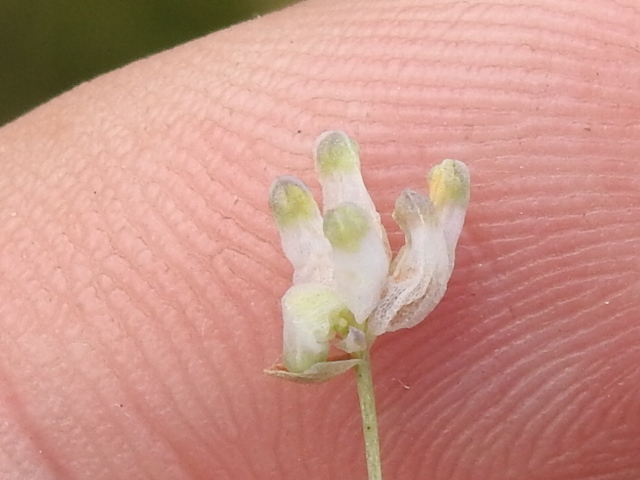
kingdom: Plantae
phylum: Tracheophyta
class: Liliopsida
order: Dioscoreales
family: Burmanniaceae
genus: Burmannia
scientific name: Burmannia capitata
